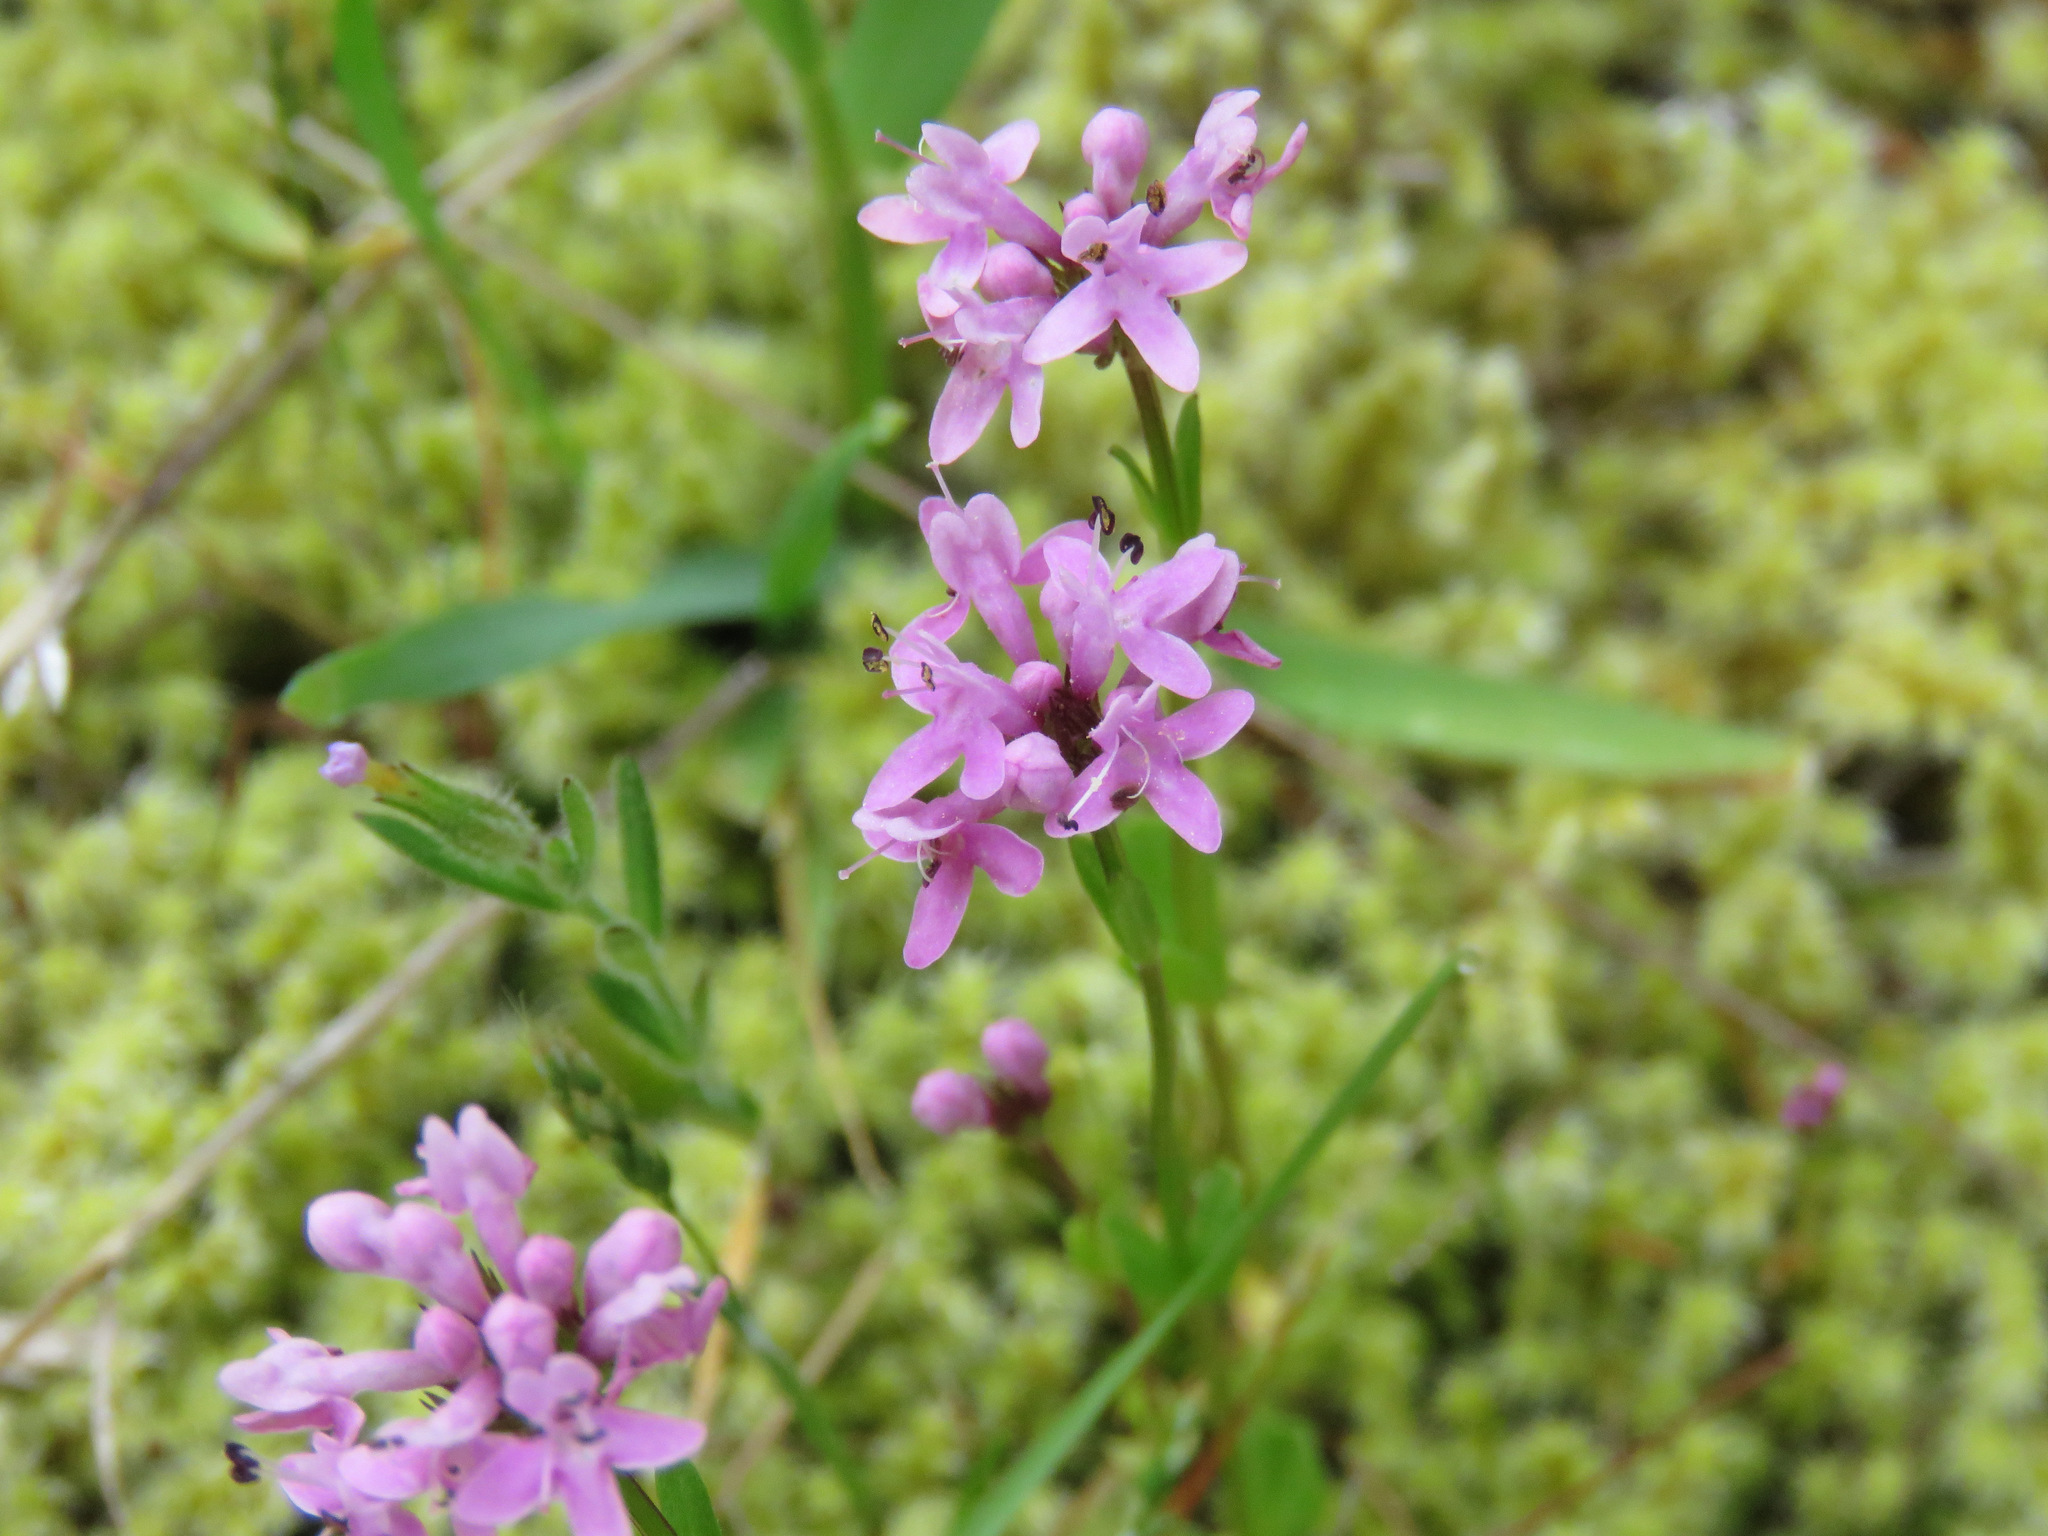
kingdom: Plantae
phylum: Tracheophyta
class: Magnoliopsida
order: Dipsacales
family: Caprifoliaceae
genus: Plectritis
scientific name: Plectritis congesta
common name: Pink plectritis
